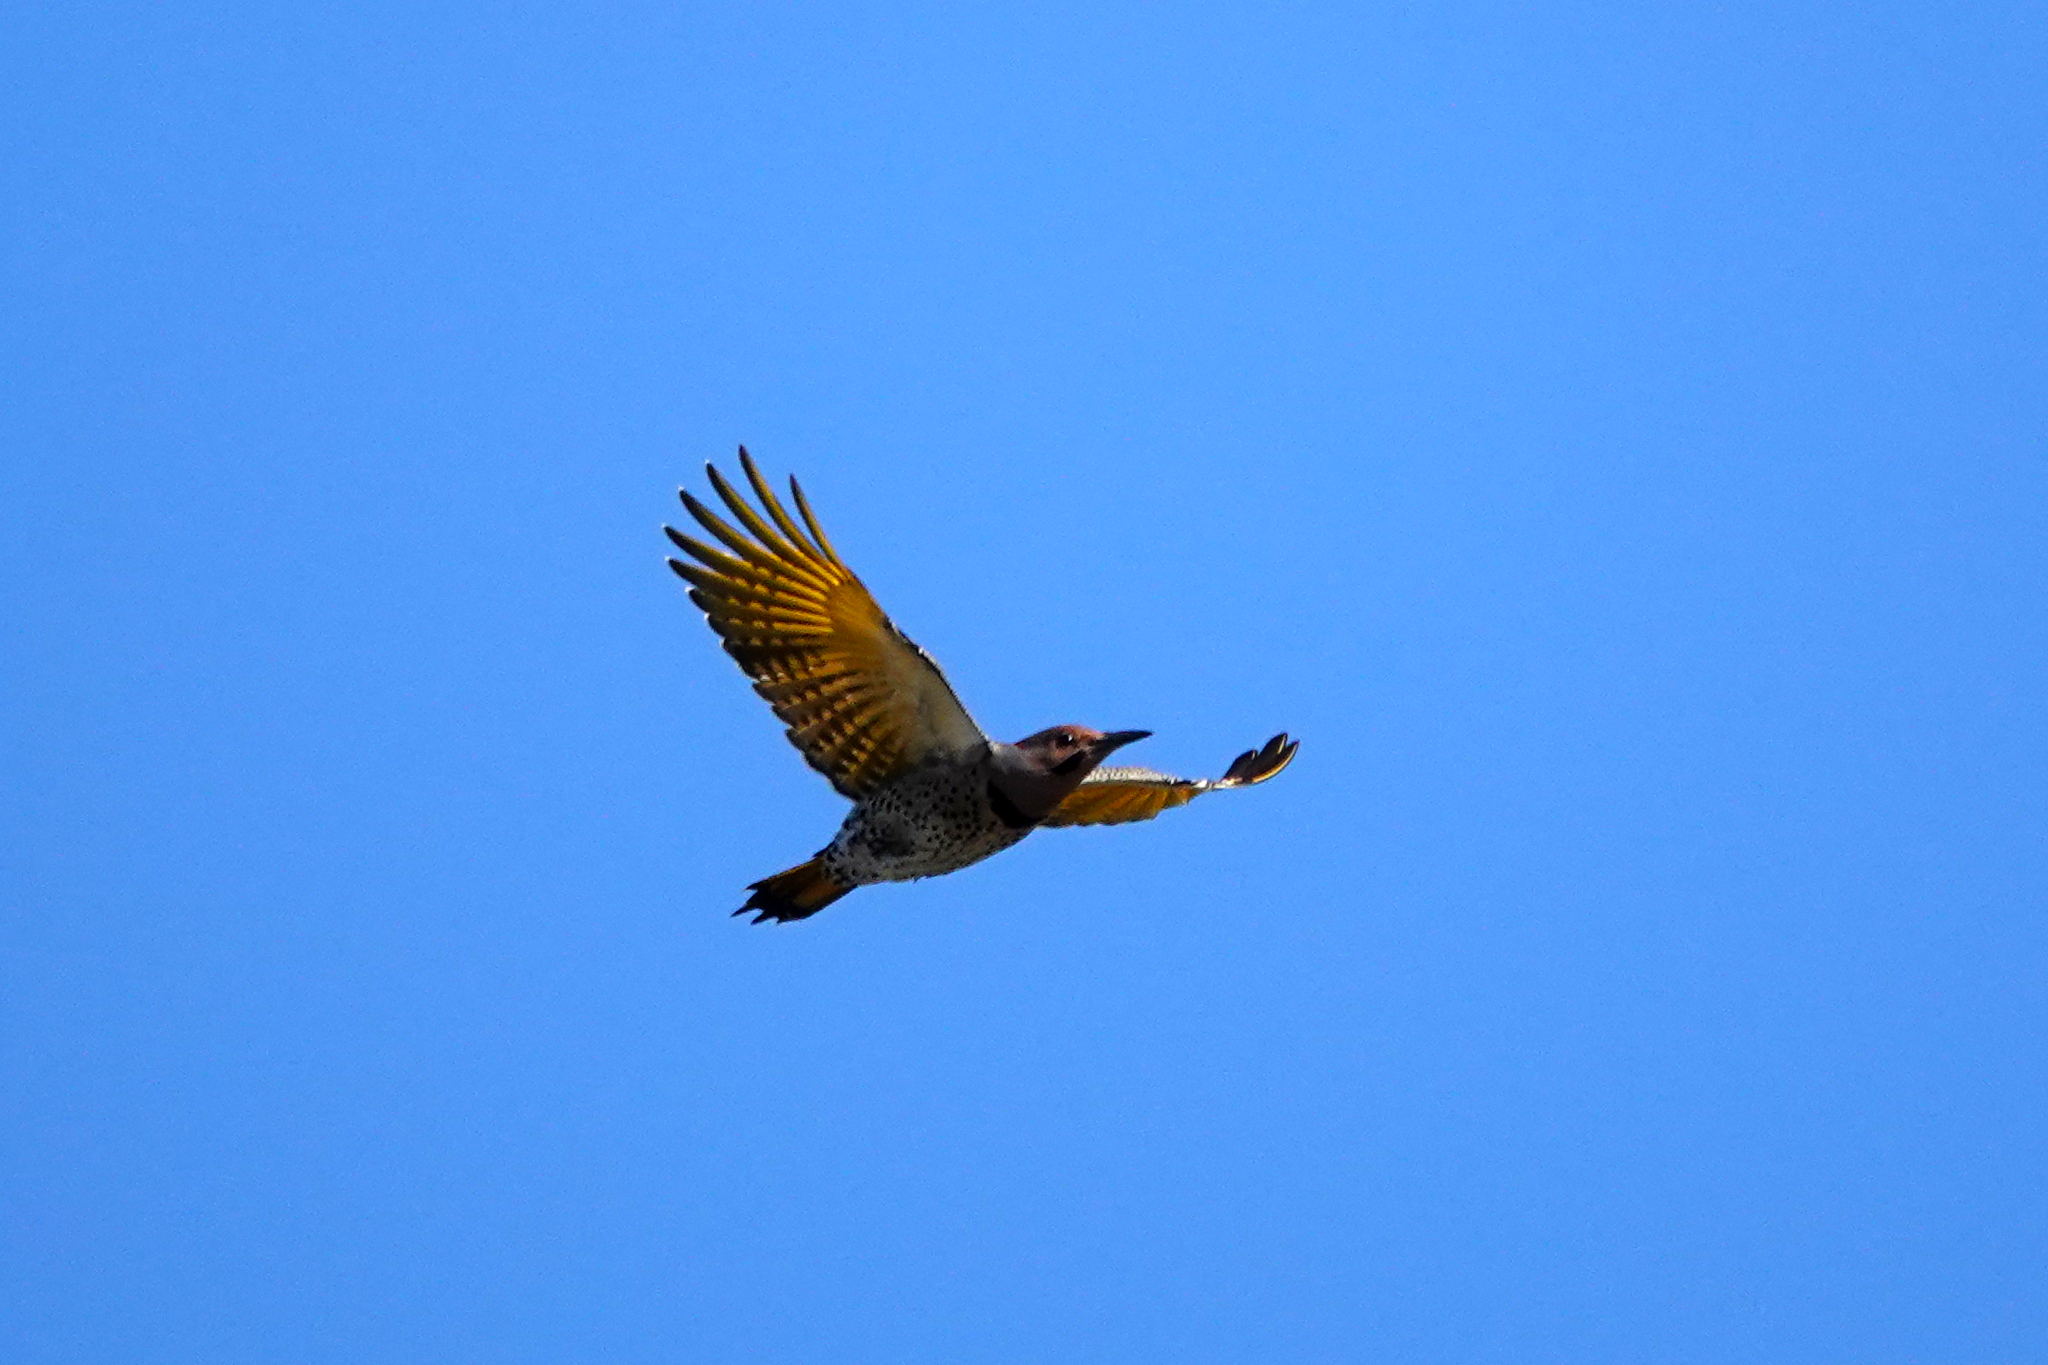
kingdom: Animalia
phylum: Chordata
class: Aves
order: Piciformes
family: Picidae
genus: Colaptes
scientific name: Colaptes auratus
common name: Northern flicker
